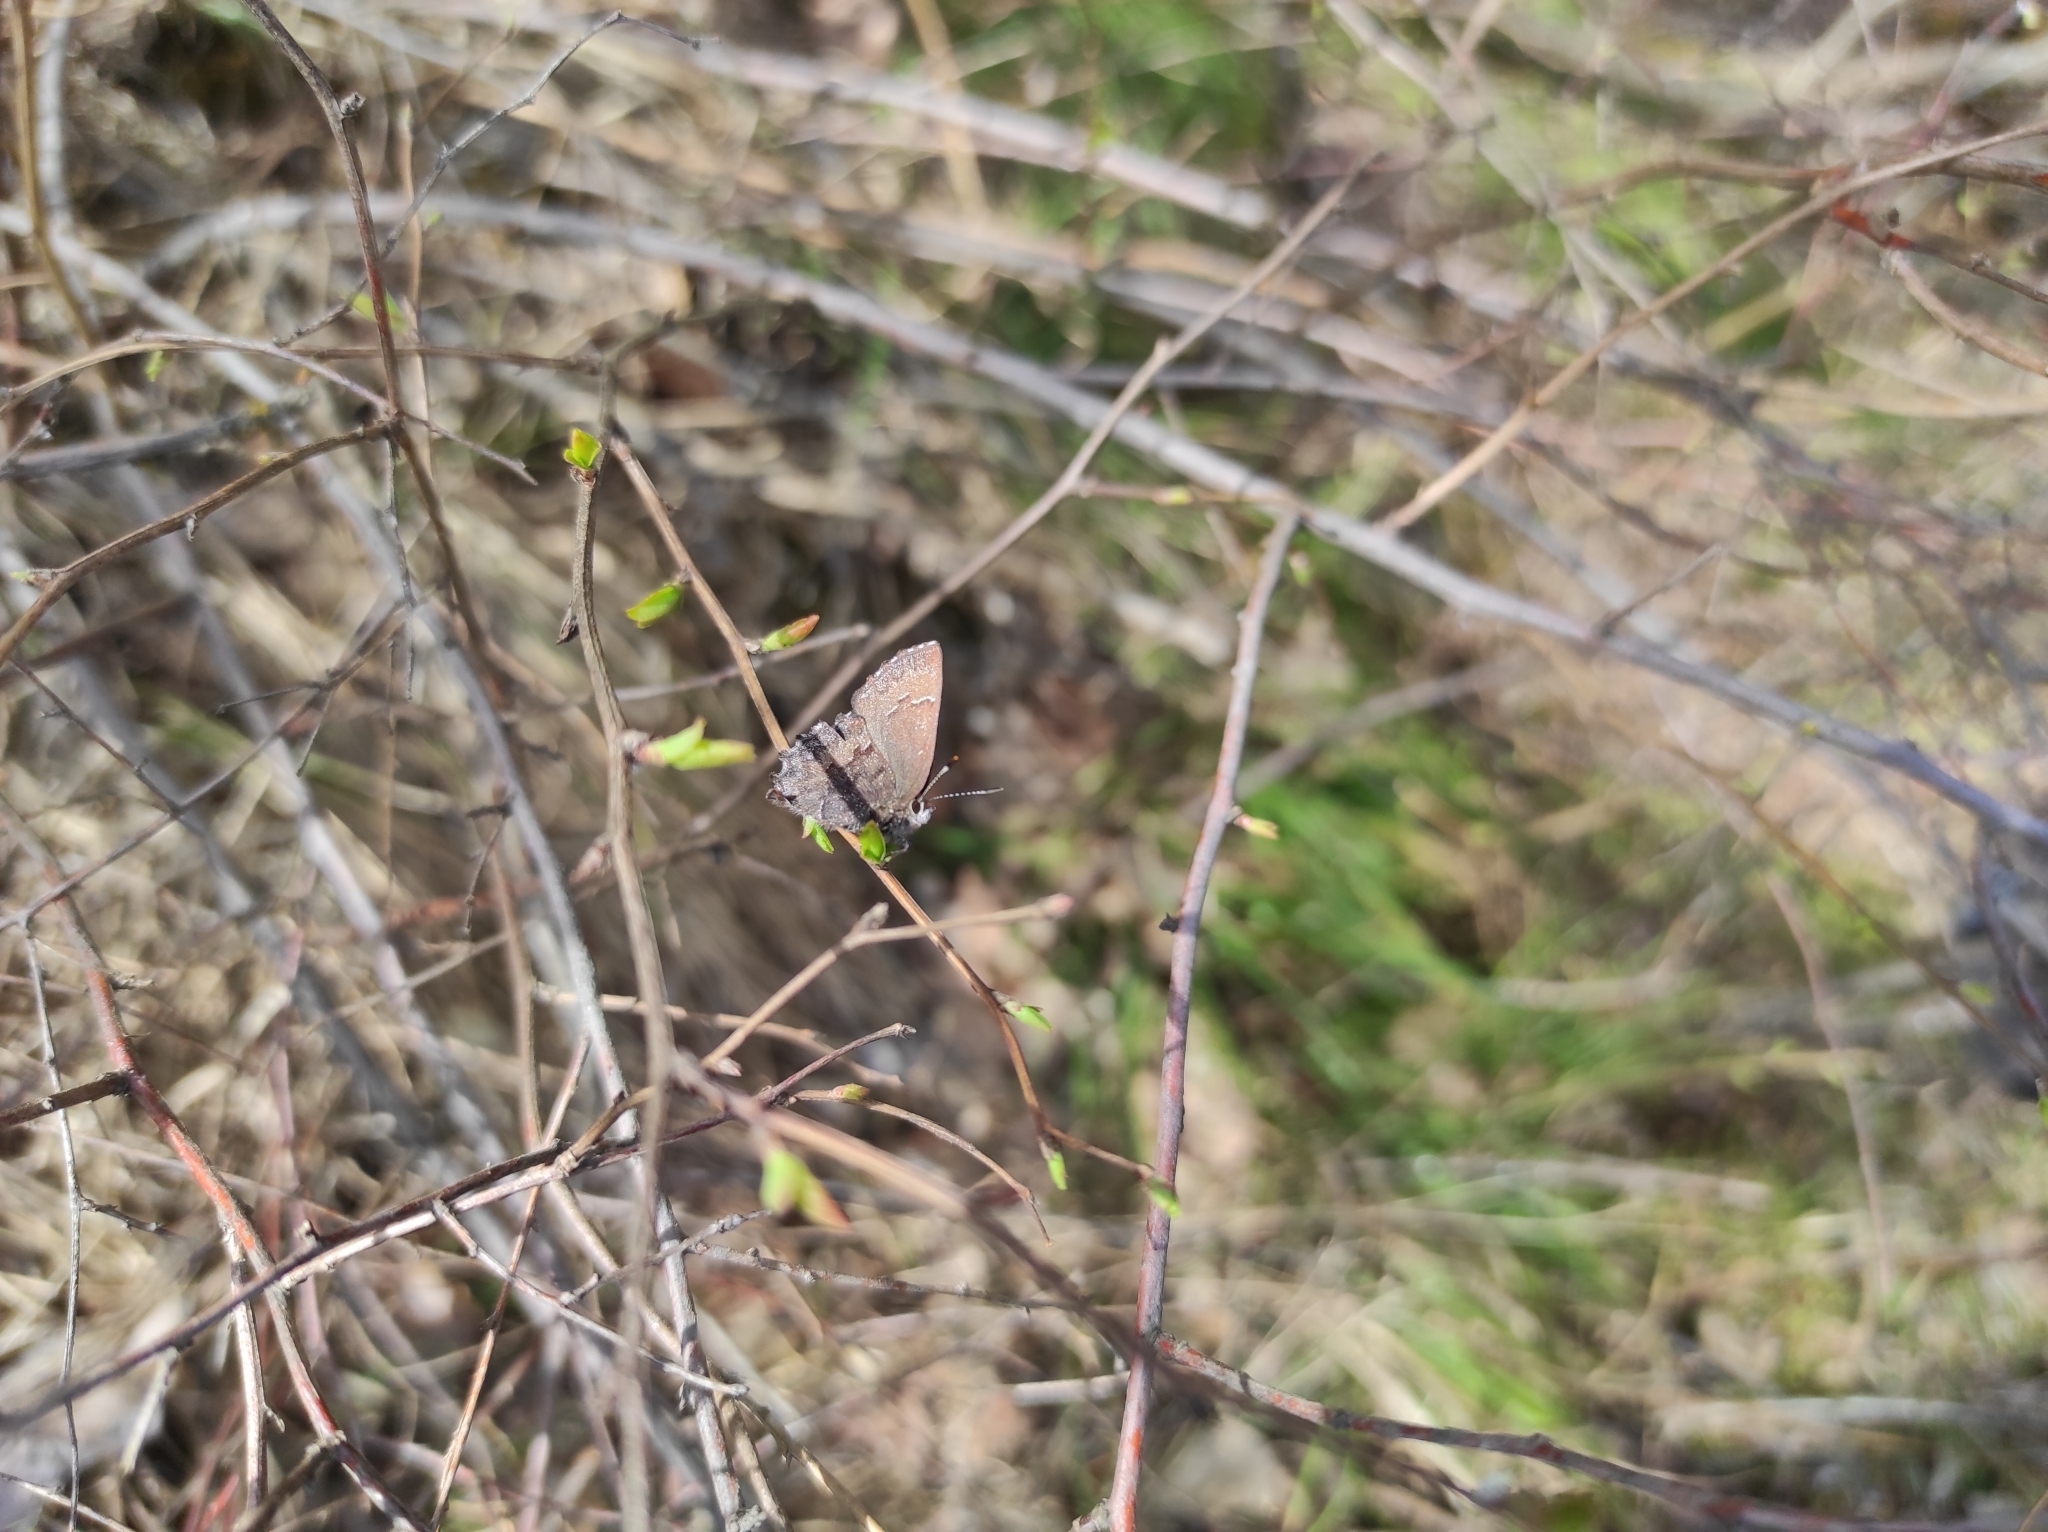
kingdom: Animalia
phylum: Arthropoda
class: Insecta
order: Lepidoptera
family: Lycaenidae
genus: Ginzia
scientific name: Ginzia Ahlbergia frivaldszkyi
